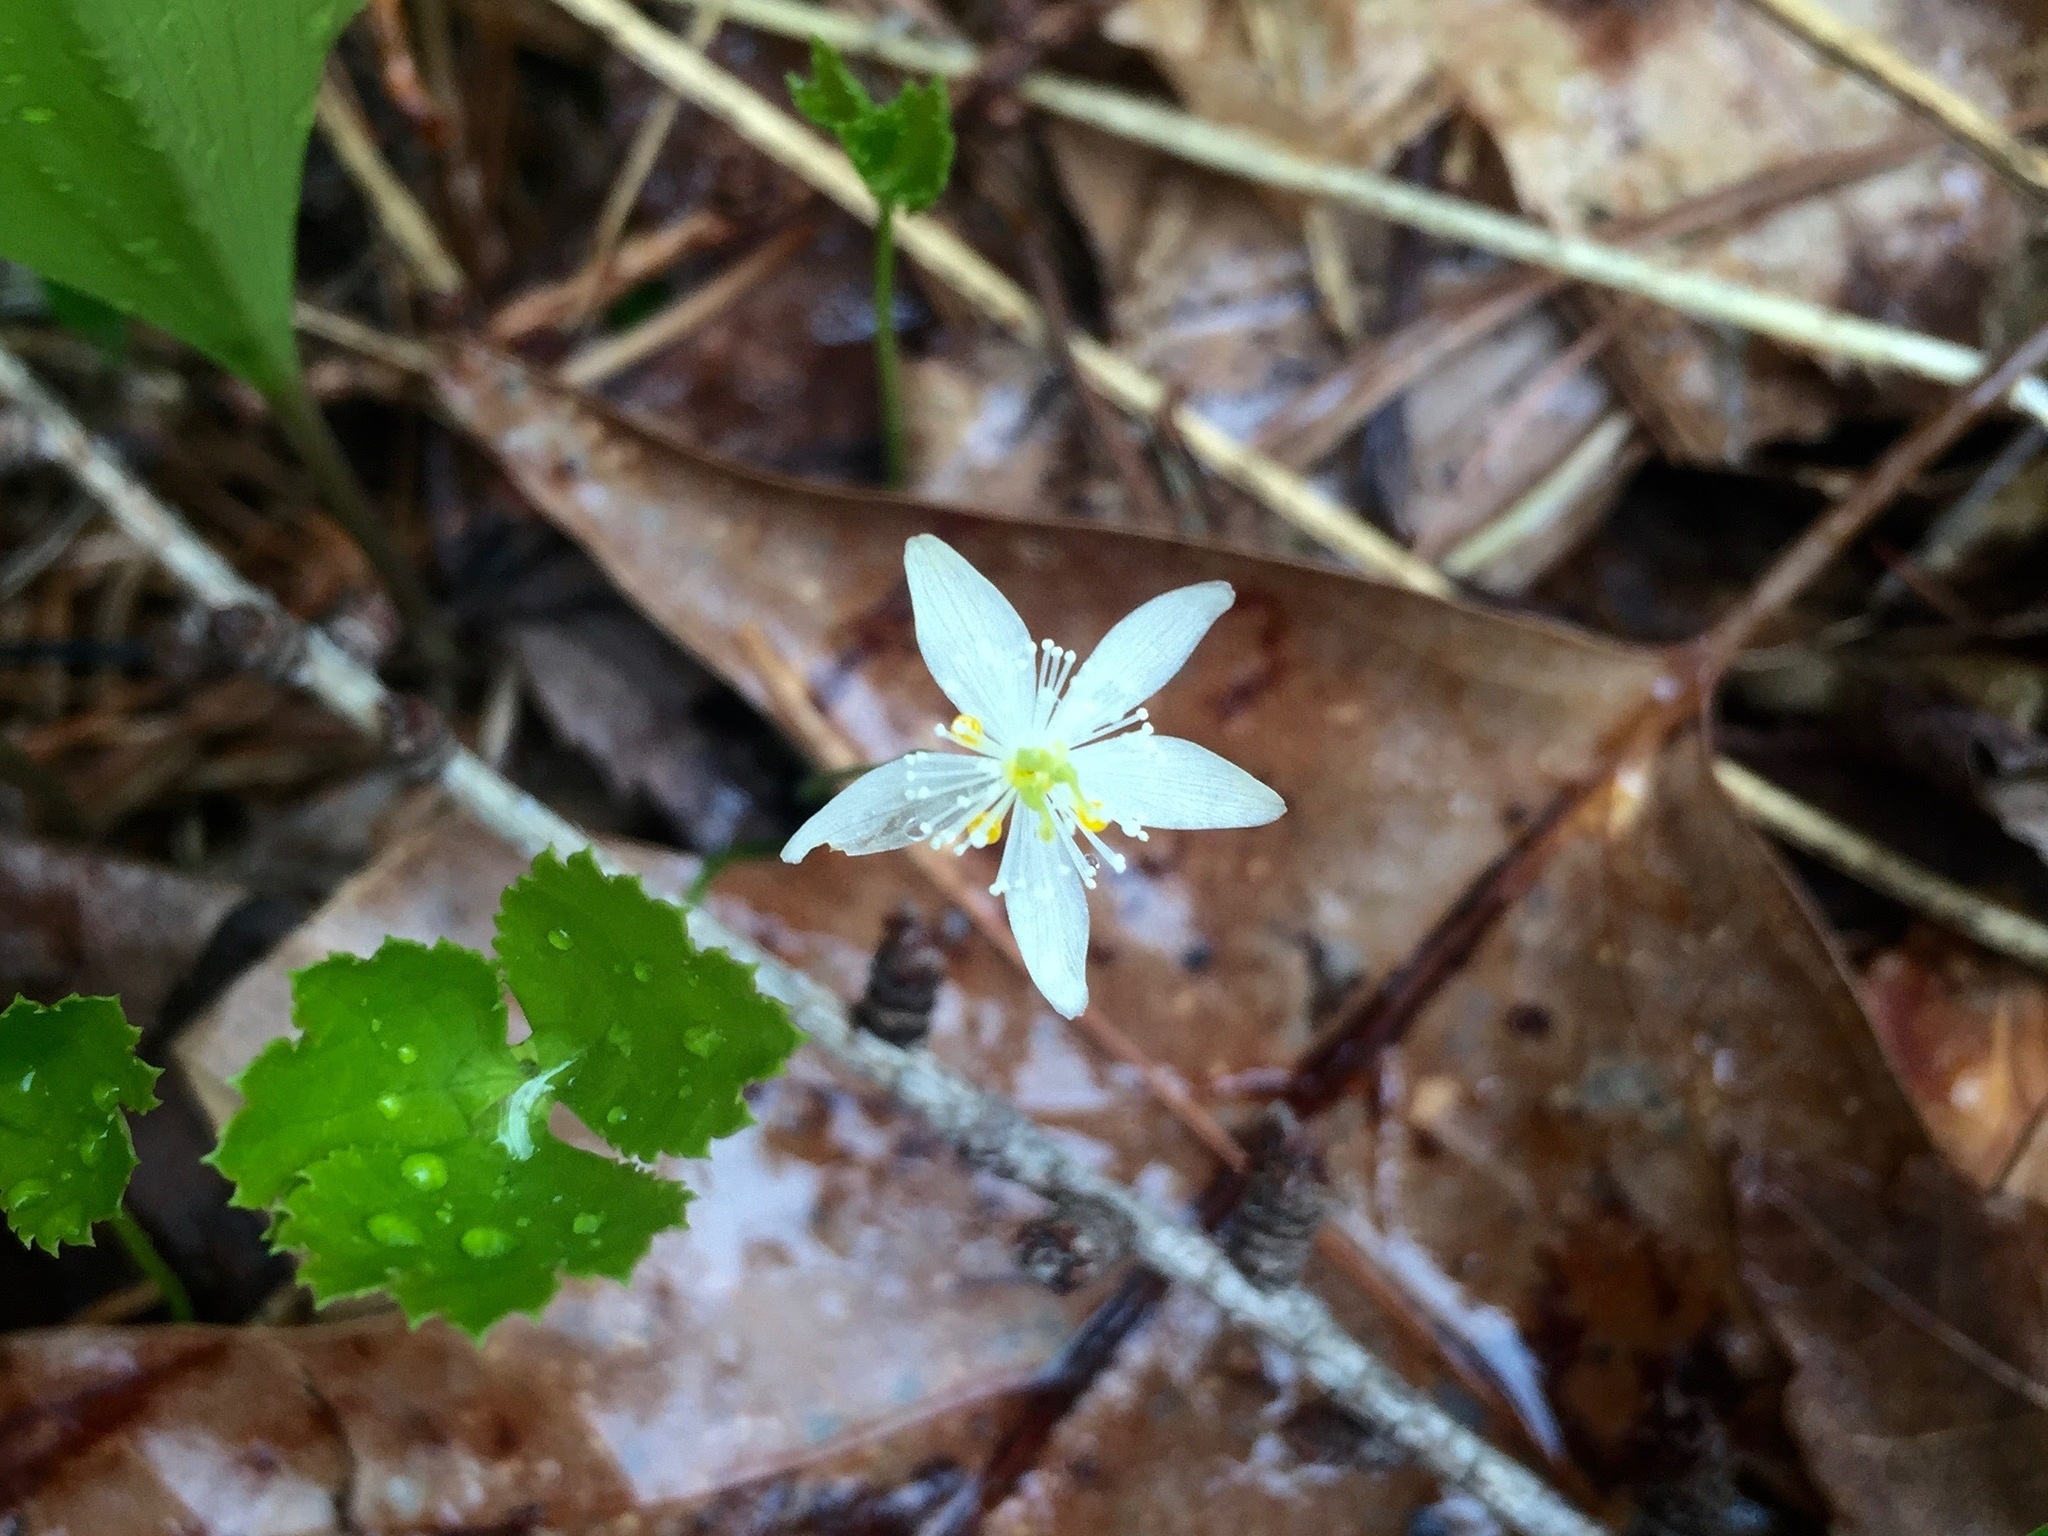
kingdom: Plantae
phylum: Tracheophyta
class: Magnoliopsida
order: Ranunculales
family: Ranunculaceae
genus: Coptis
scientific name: Coptis trifolia
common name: Canker-root
